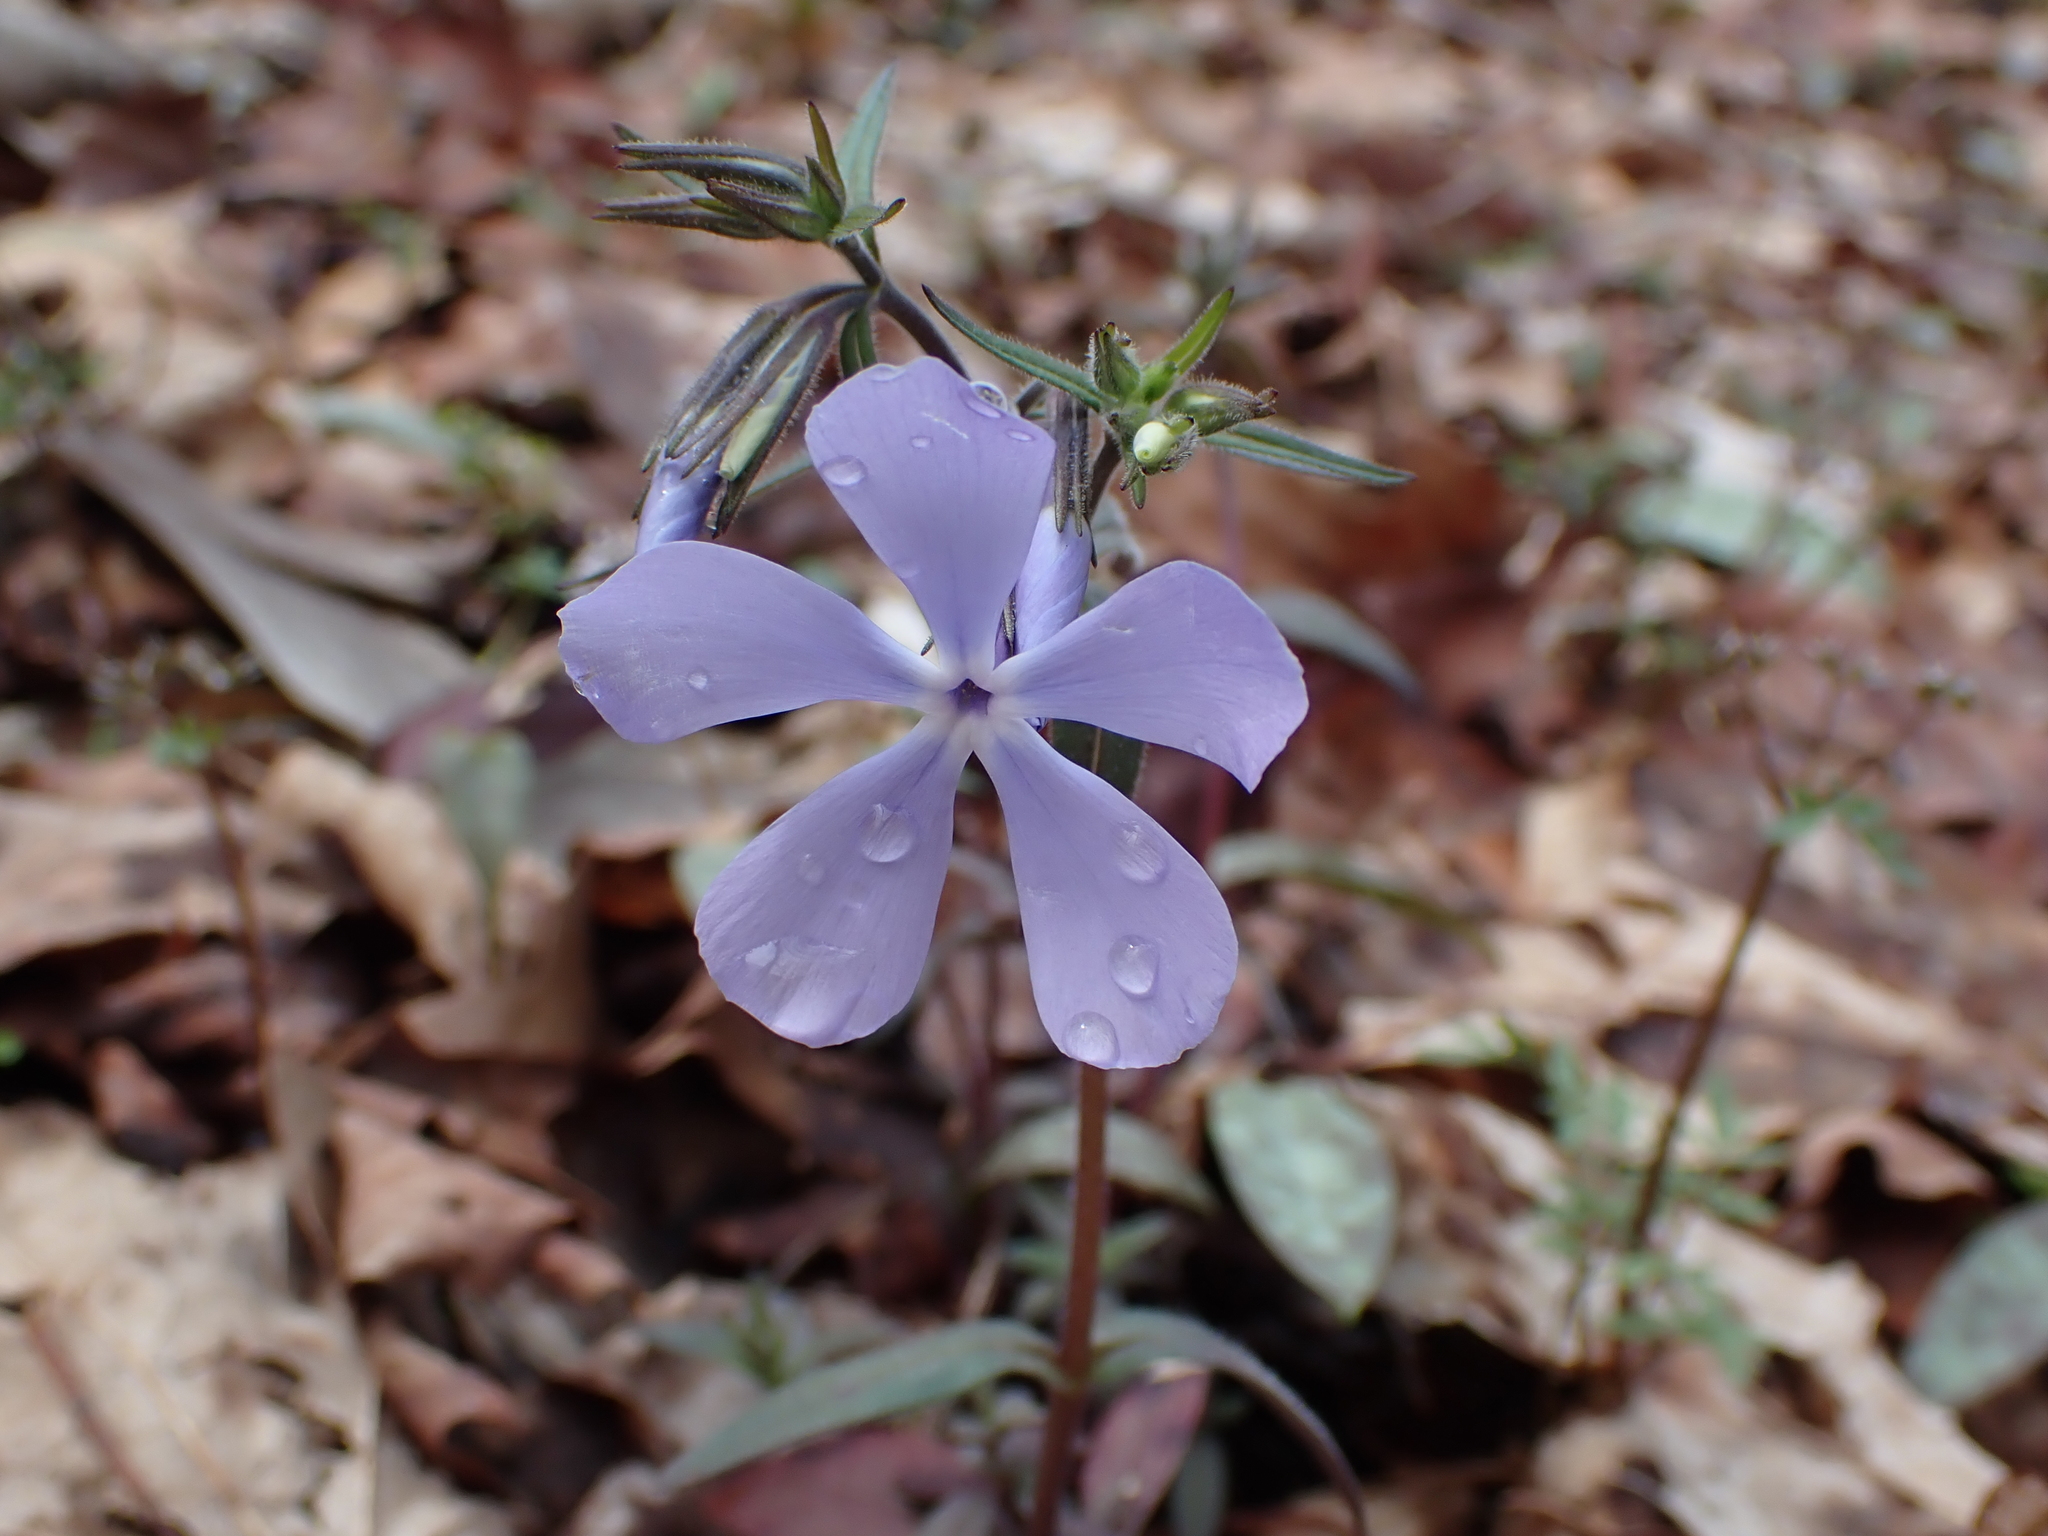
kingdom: Plantae
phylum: Tracheophyta
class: Magnoliopsida
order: Ericales
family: Polemoniaceae
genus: Phlox
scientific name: Phlox divaricata
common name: Blue phlox
